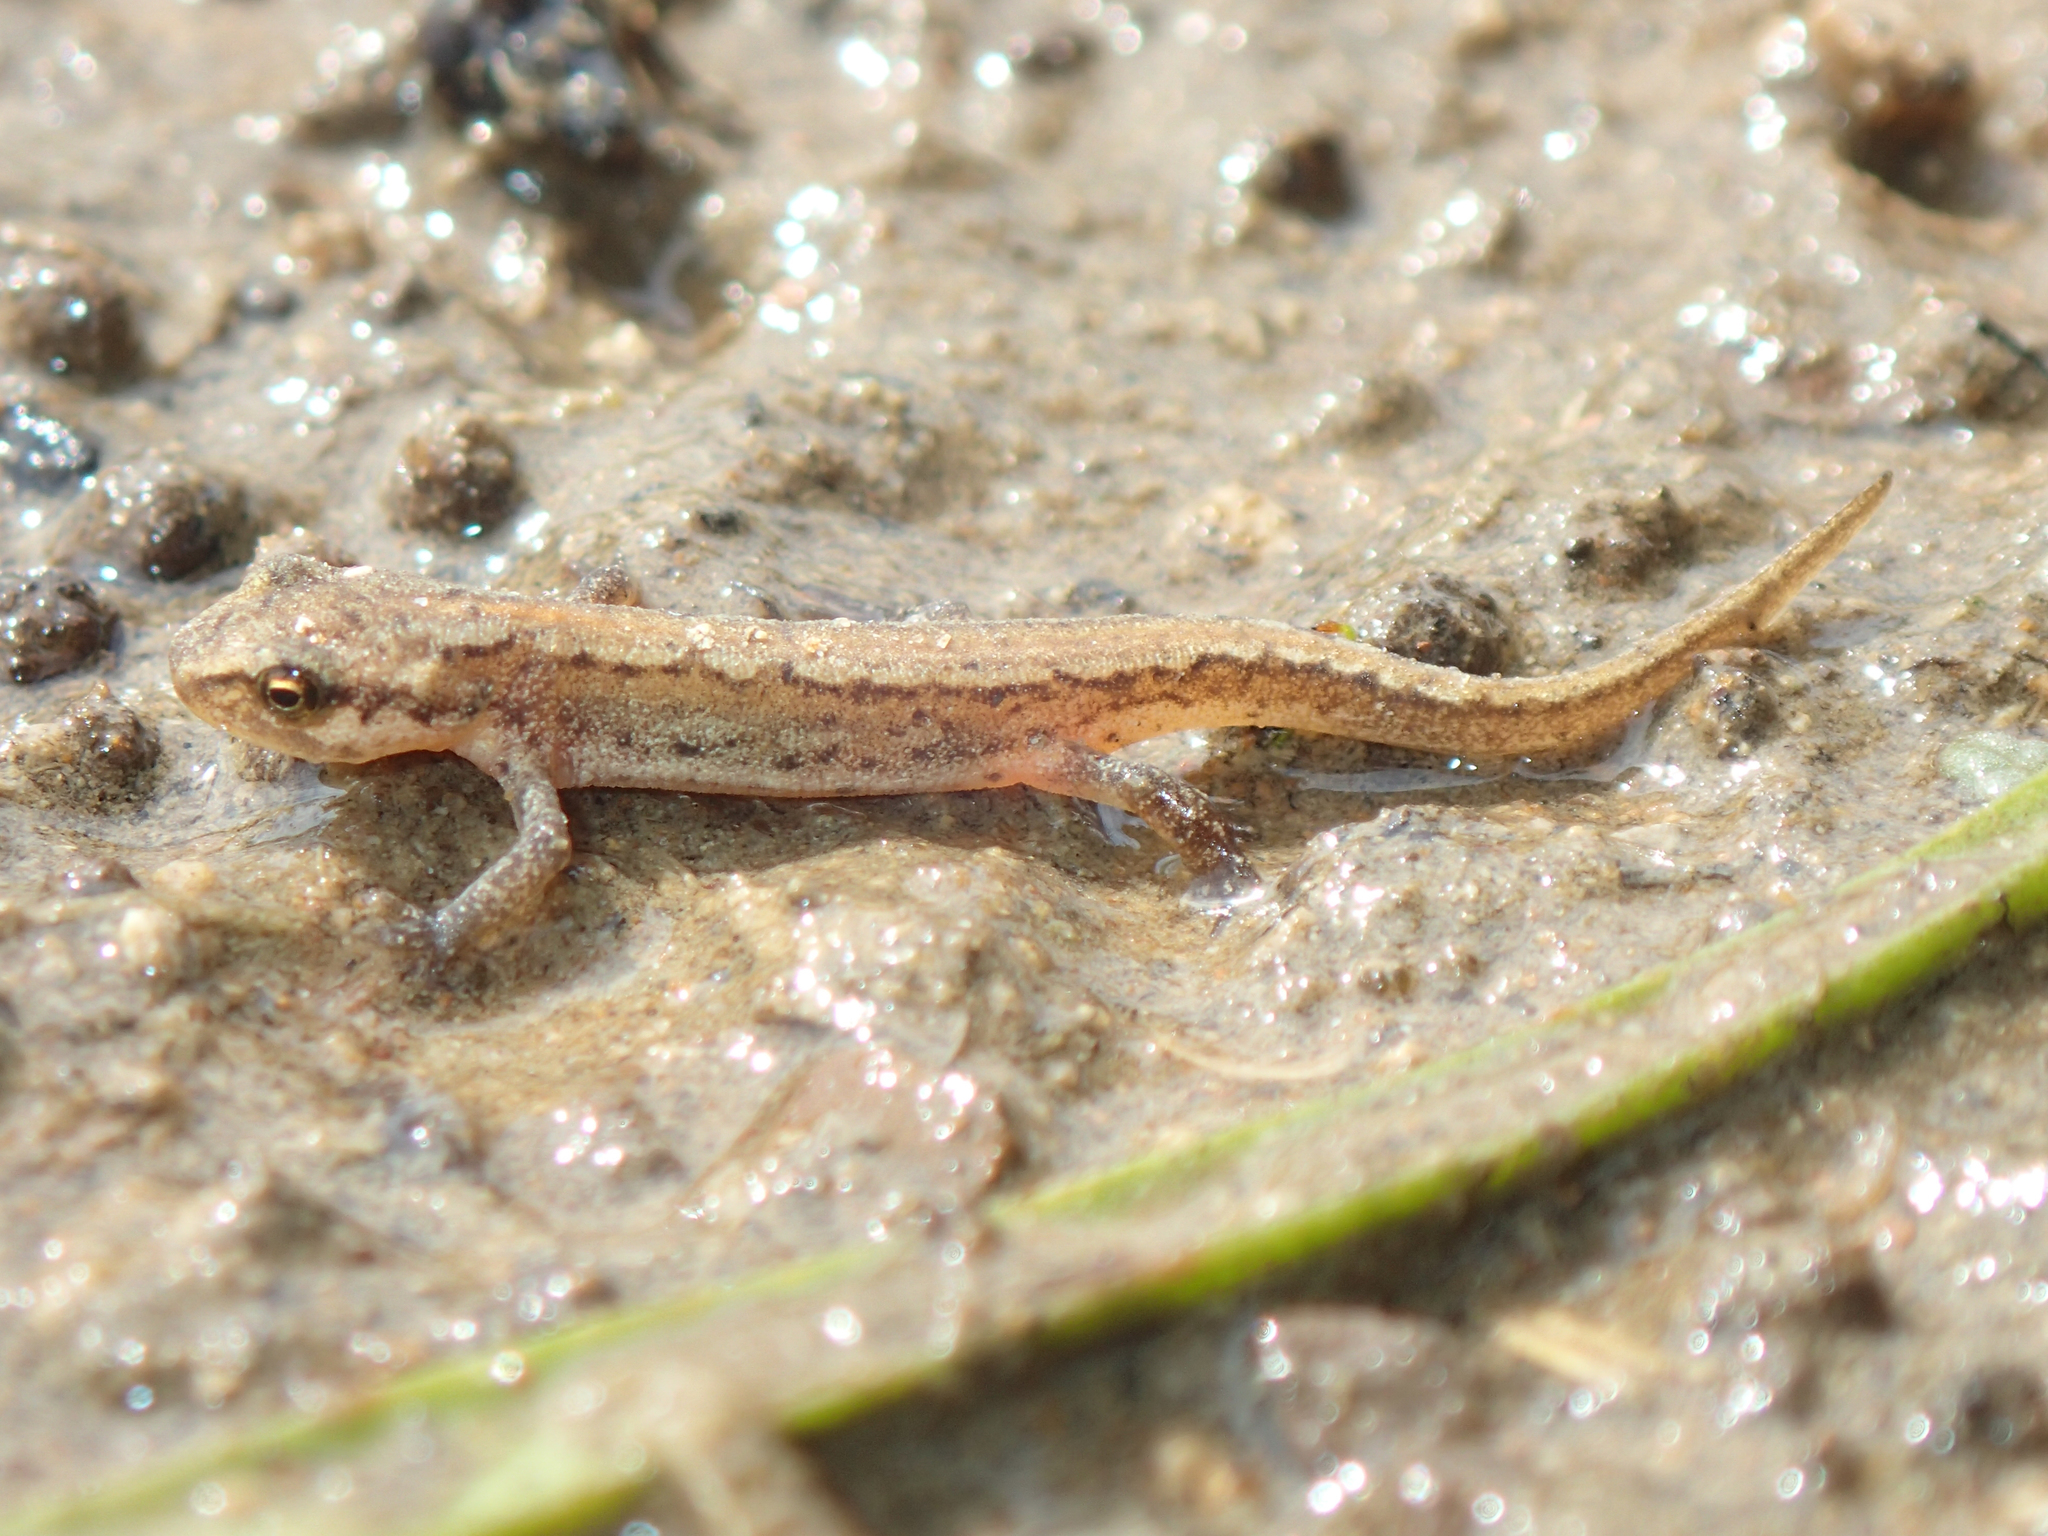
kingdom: Animalia
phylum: Chordata
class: Amphibia
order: Caudata
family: Salamandridae
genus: Lissotriton
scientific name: Lissotriton vulgaris
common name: Smooth newt
